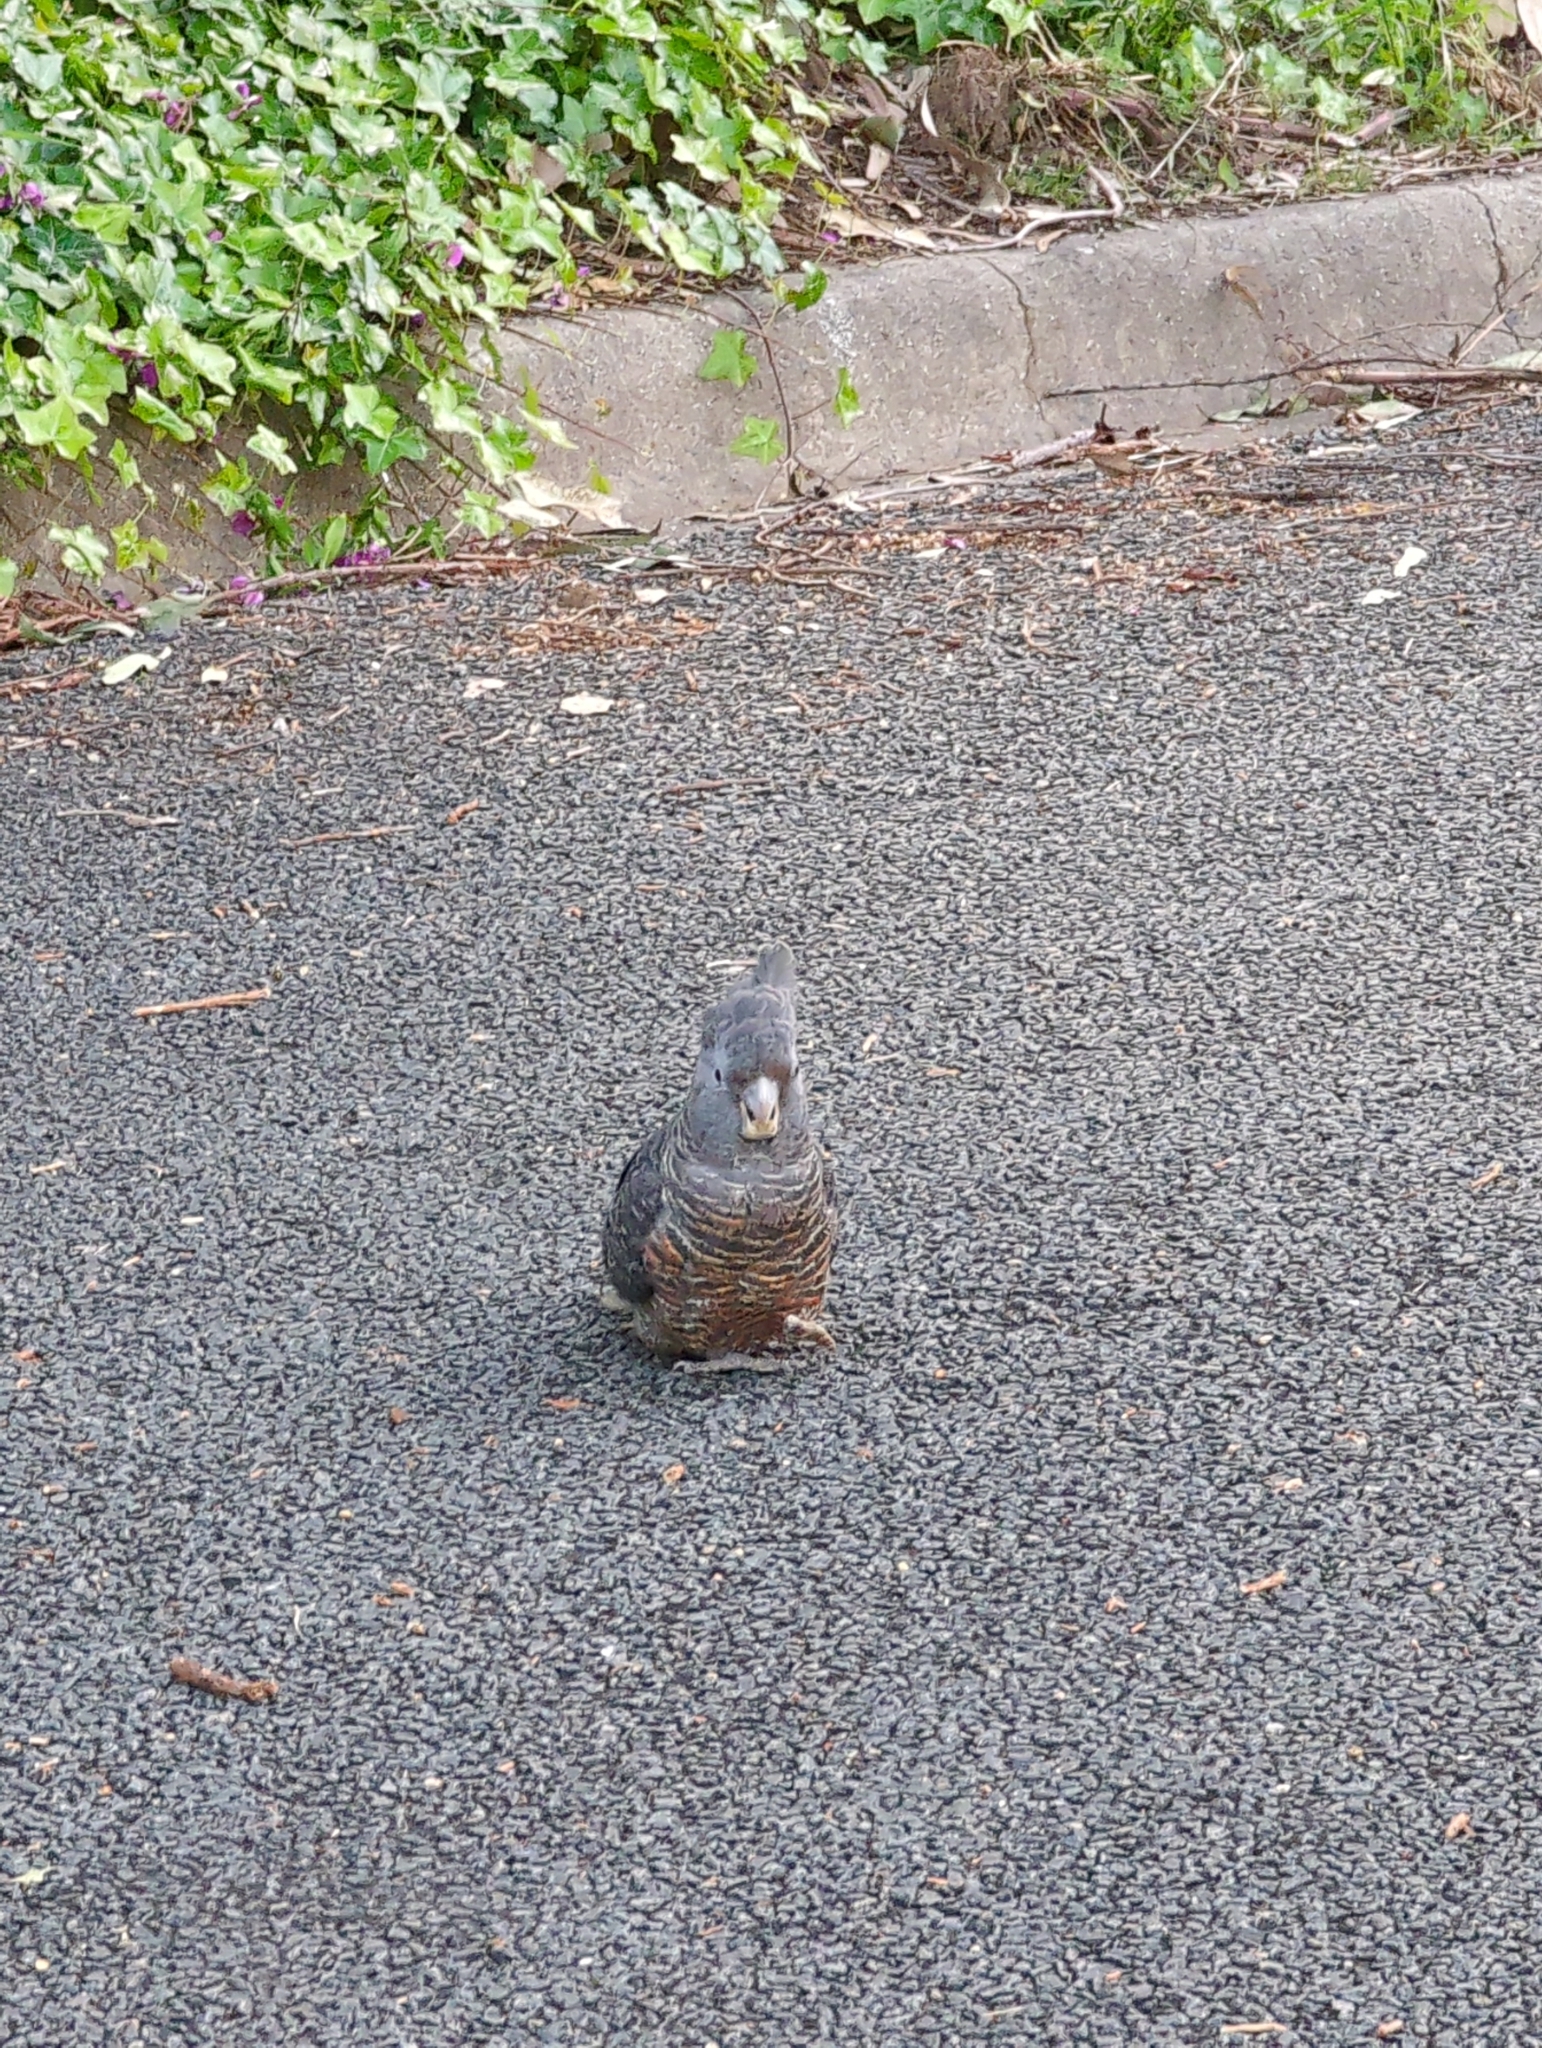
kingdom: Animalia
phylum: Chordata
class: Aves
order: Psittaciformes
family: Psittacidae
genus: Callocephalon
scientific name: Callocephalon fimbriatum
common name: Gang-gang cockatoo
